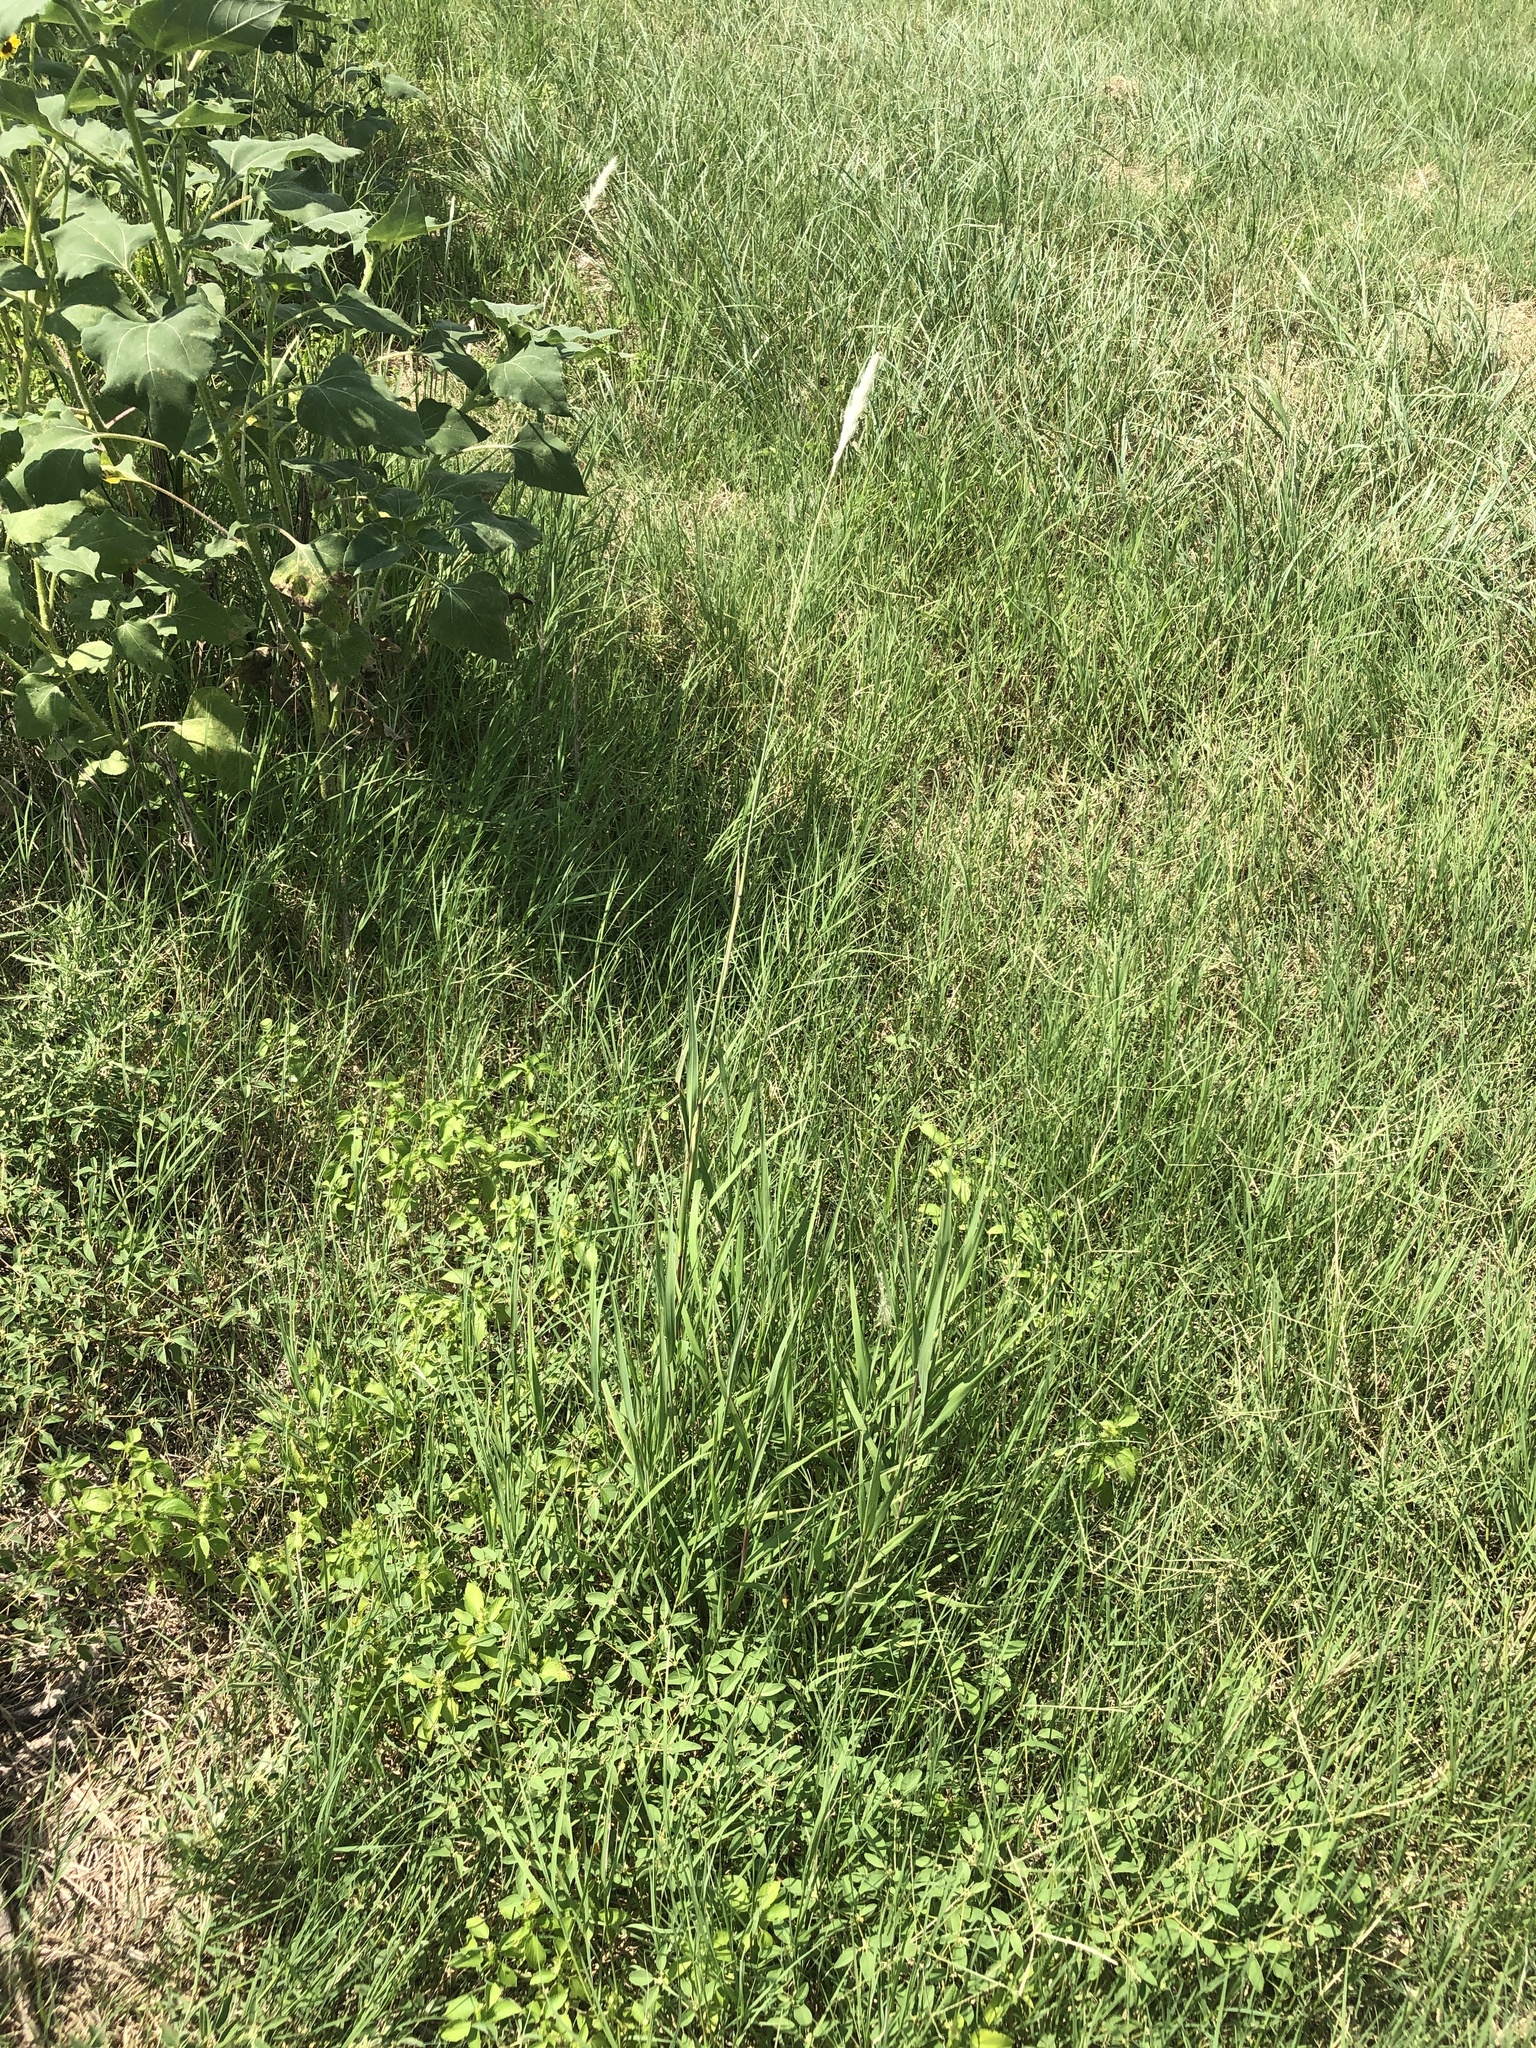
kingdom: Plantae
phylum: Tracheophyta
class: Liliopsida
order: Poales
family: Poaceae
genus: Bothriochloa
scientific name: Bothriochloa torreyana
